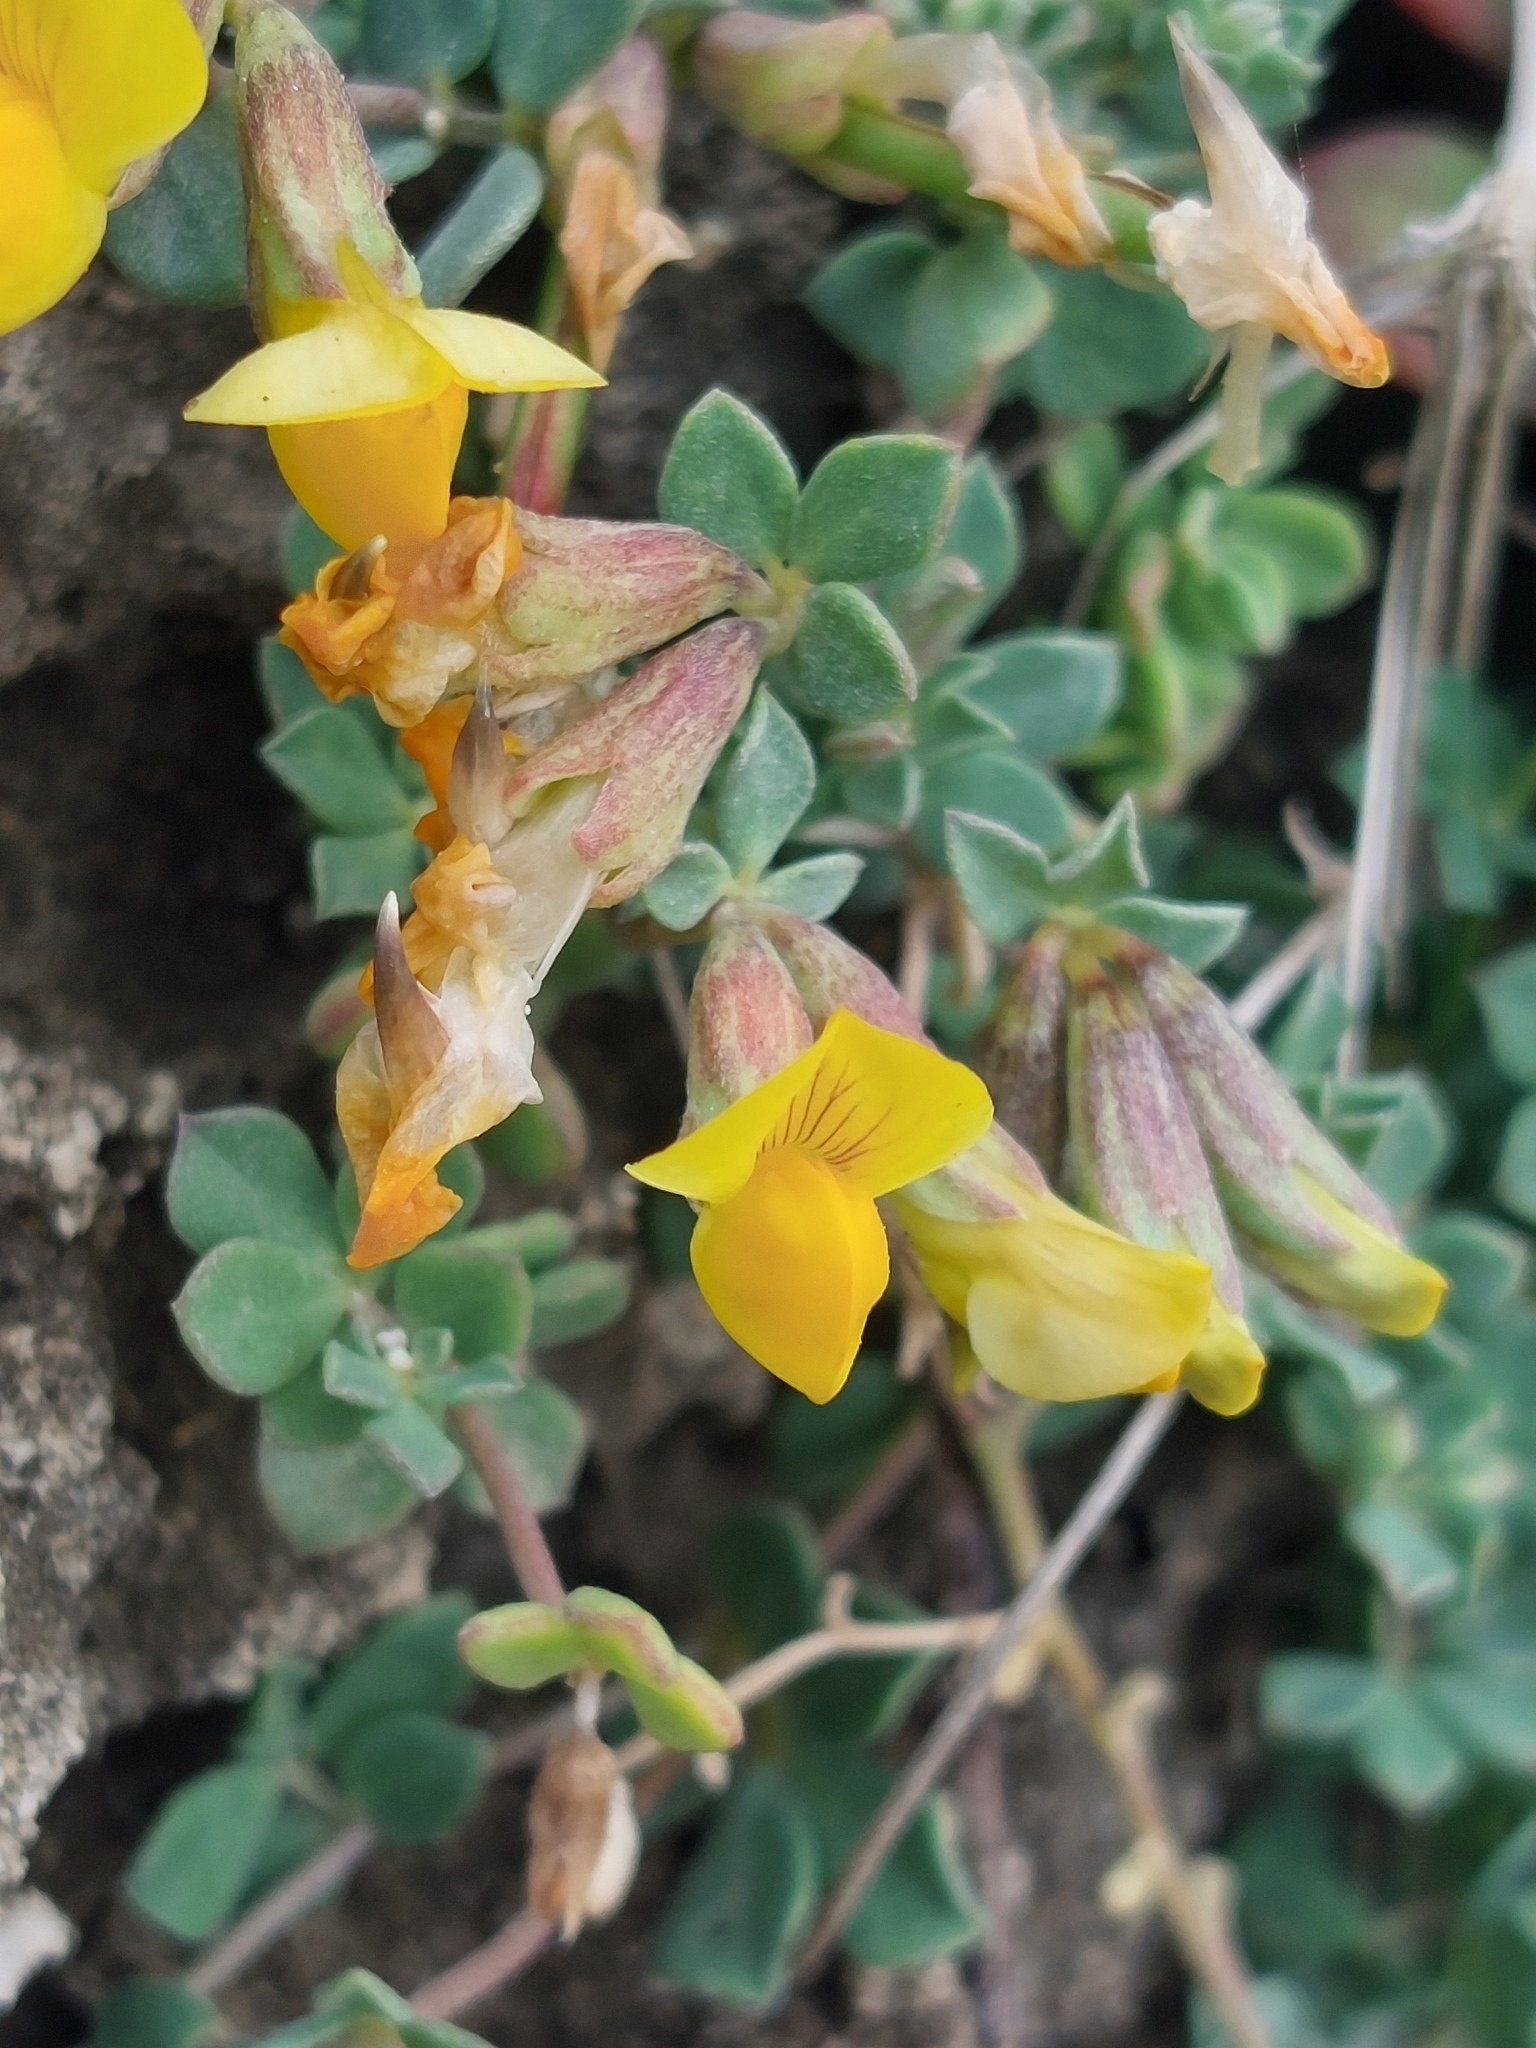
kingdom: Plantae
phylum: Tracheophyta
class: Magnoliopsida
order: Fabales
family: Fabaceae
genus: Lotus
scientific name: Lotus cytisoides
